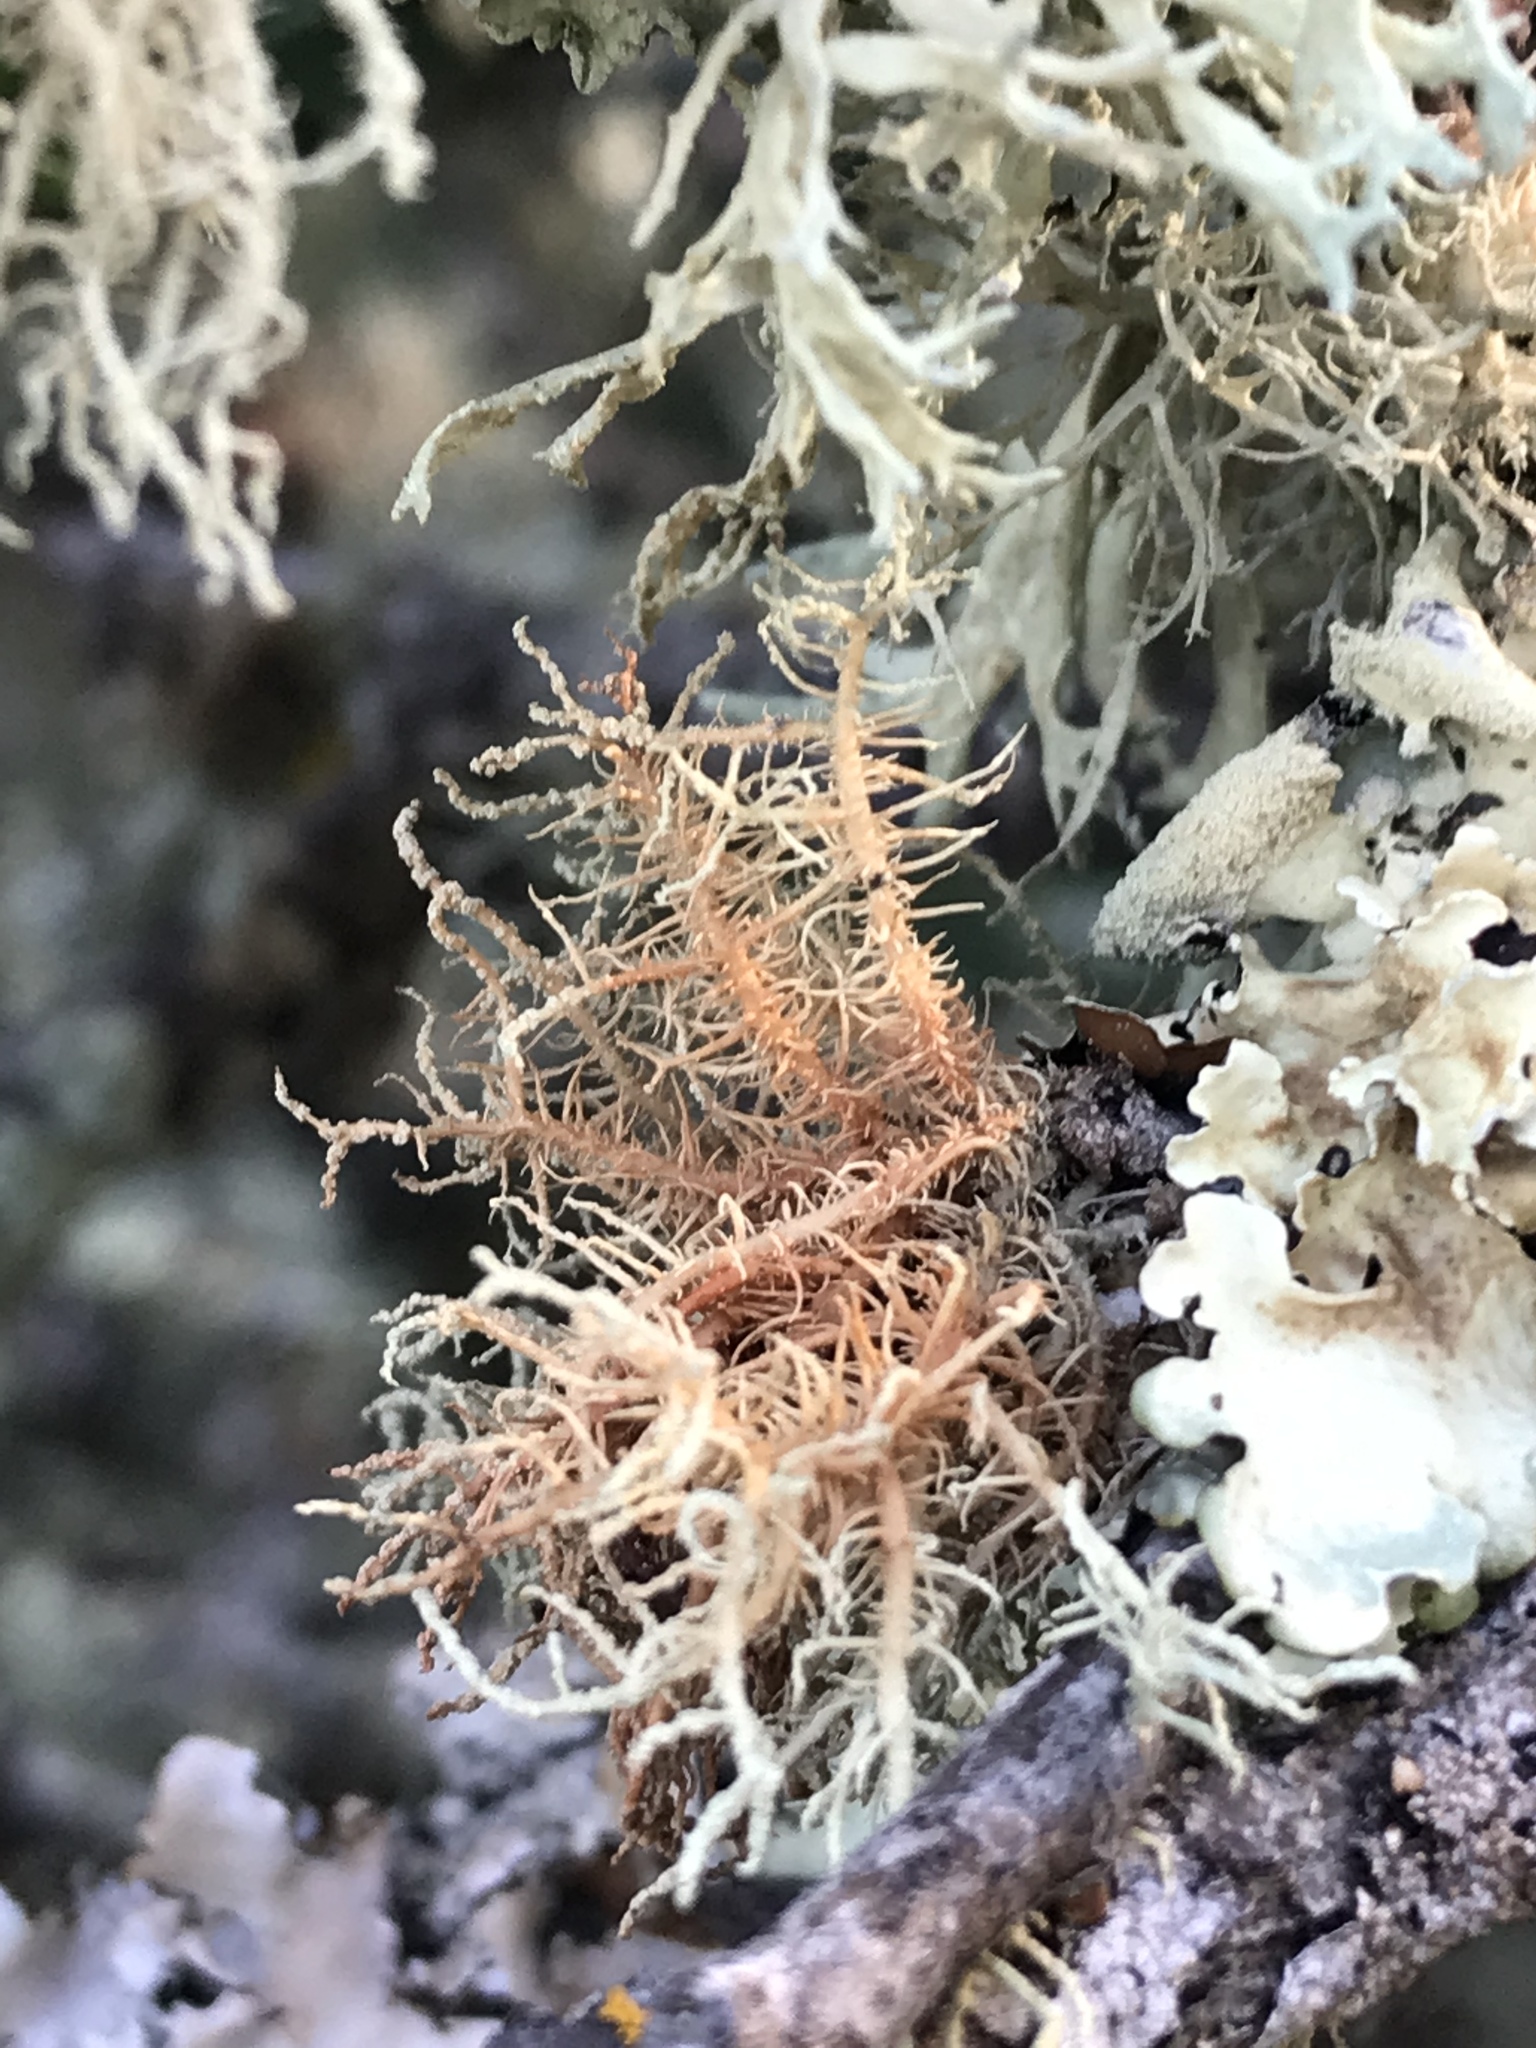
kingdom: Fungi
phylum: Ascomycota
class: Lecanoromycetes
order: Lecanorales
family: Parmeliaceae
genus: Usnea
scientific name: Usnea rubicunda
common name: Red beard lichen
